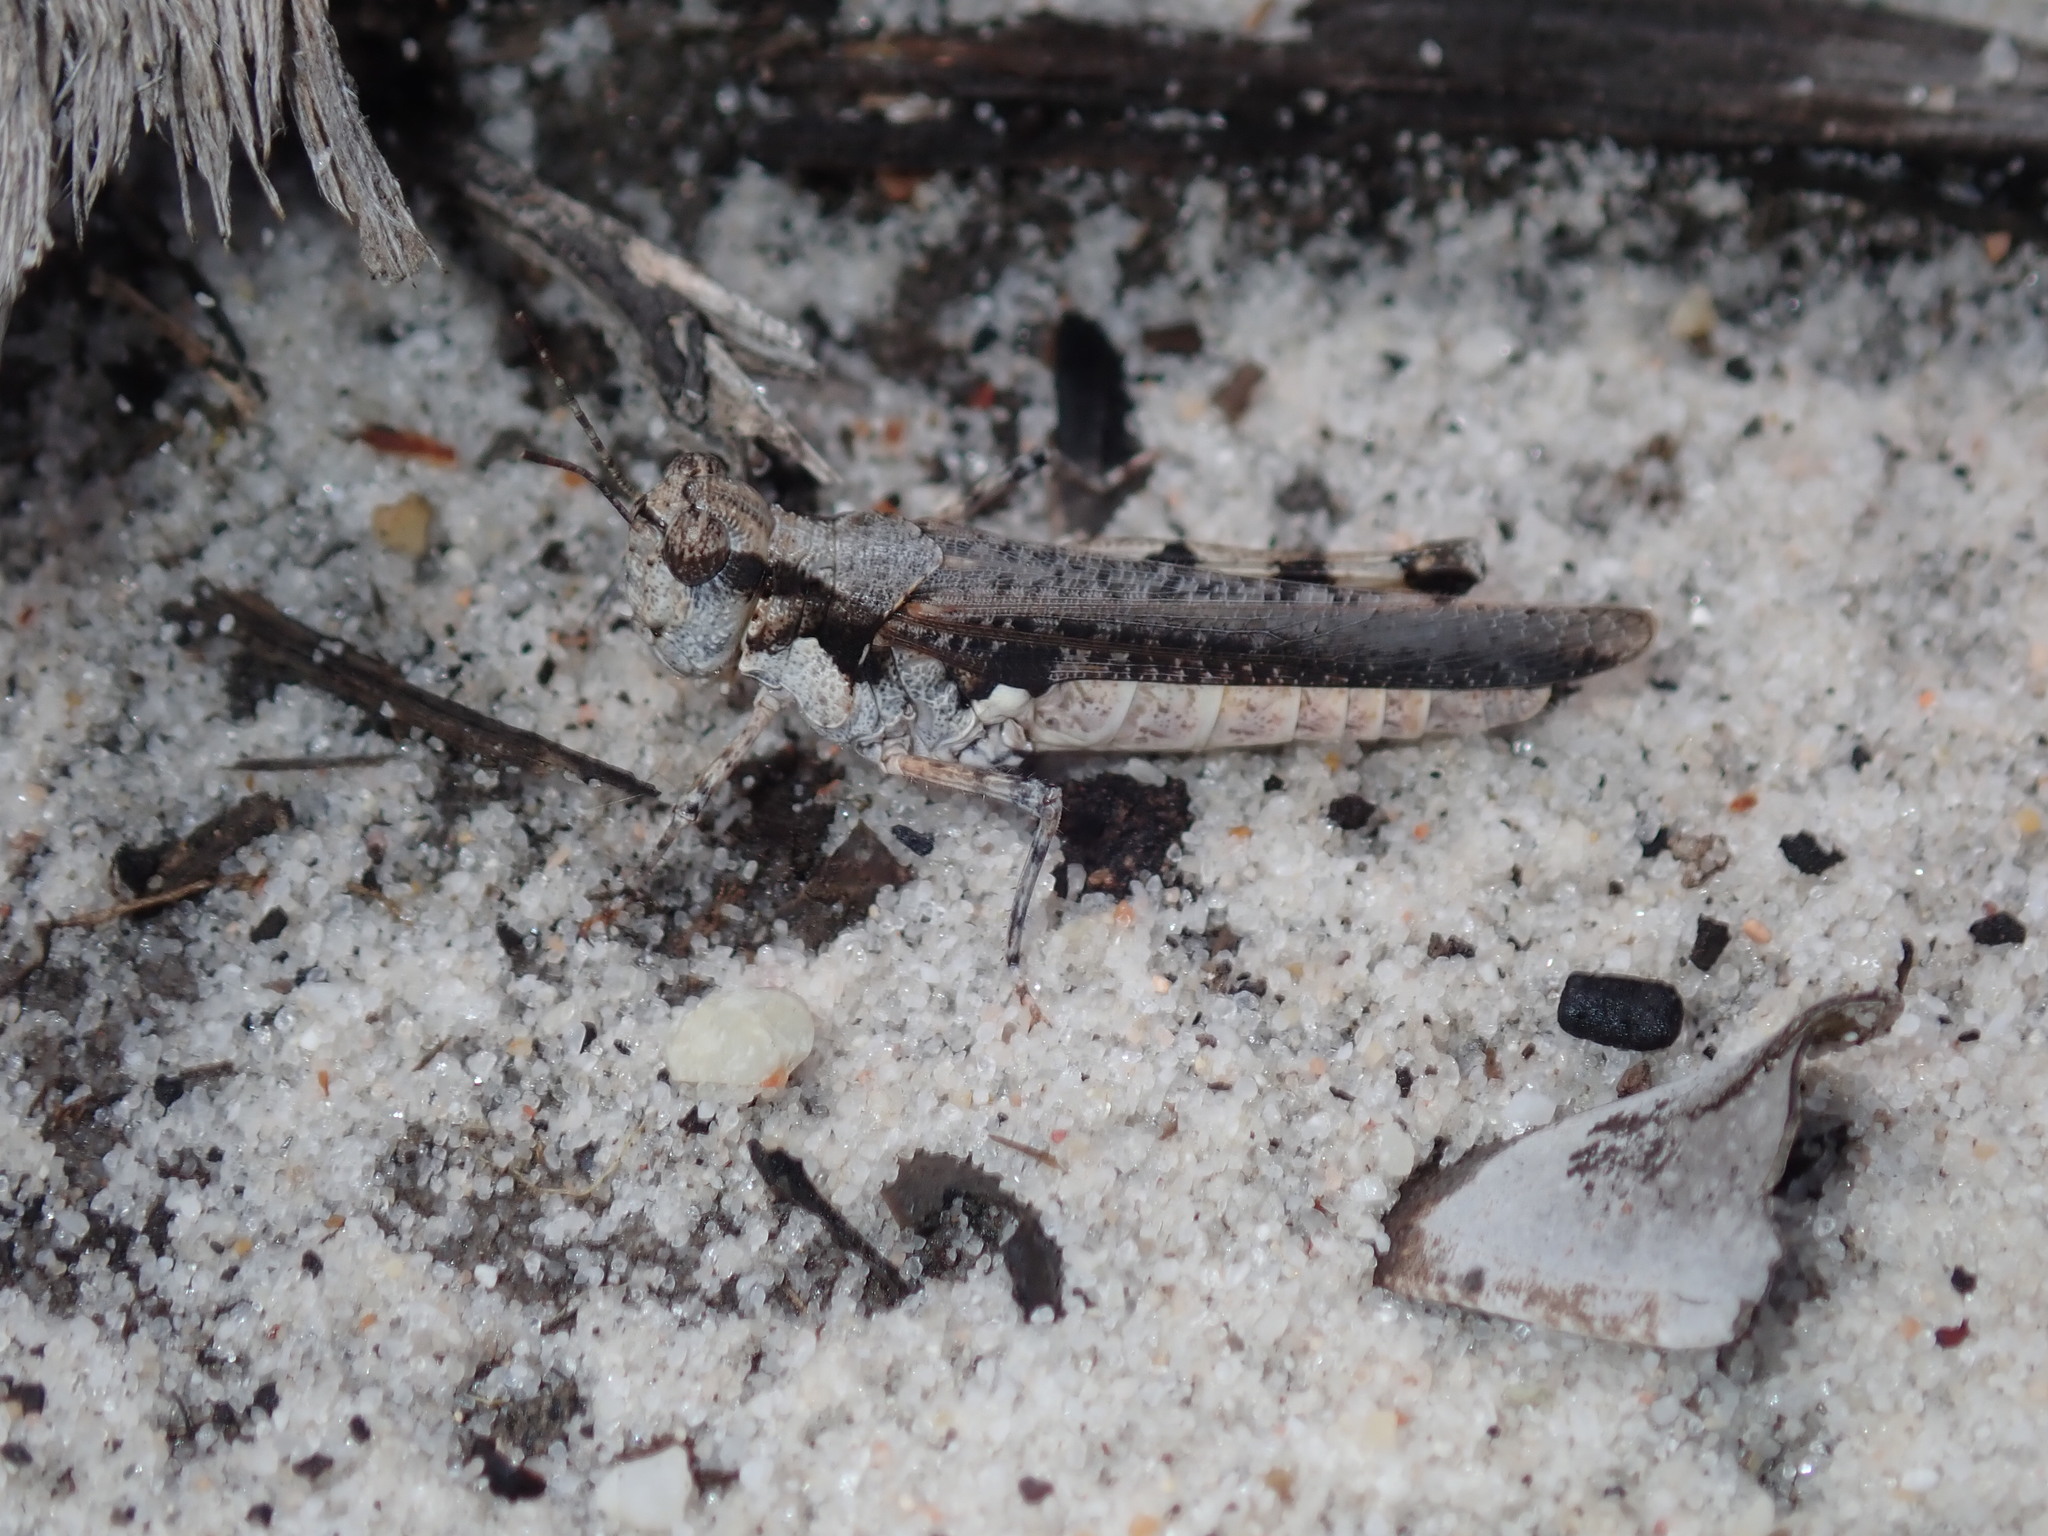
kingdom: Animalia
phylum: Arthropoda
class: Insecta
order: Orthoptera
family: Acrididae
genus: Pycnostictus
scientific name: Pycnostictus seriatus
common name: Common bandwing
